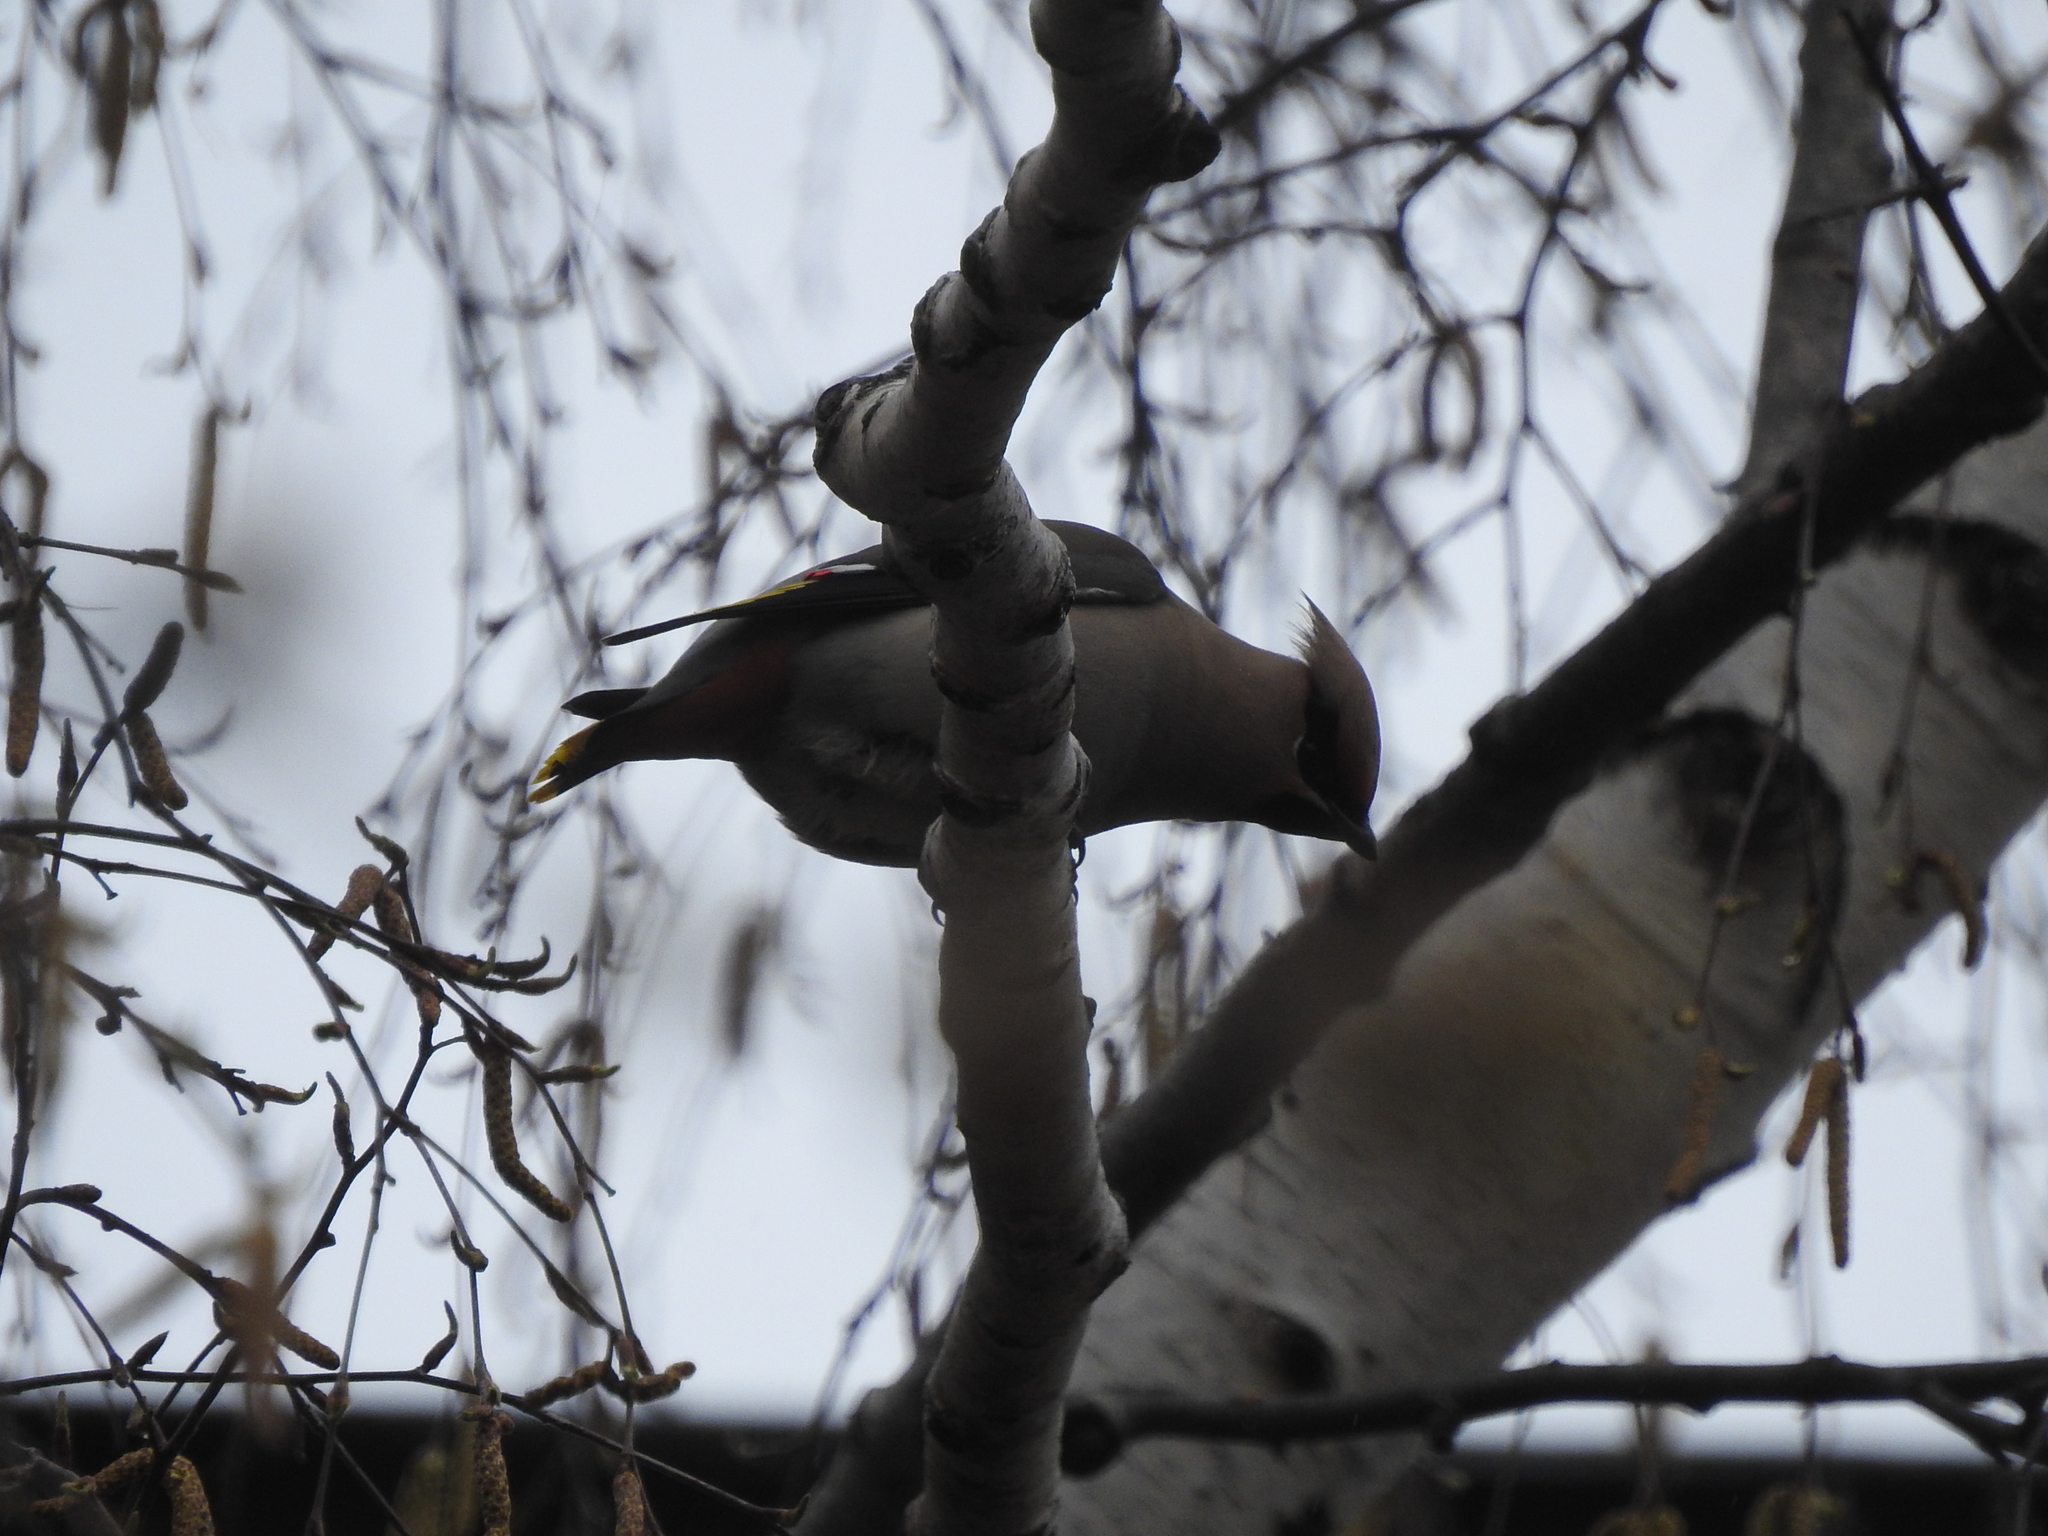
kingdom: Animalia
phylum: Chordata
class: Aves
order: Passeriformes
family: Bombycillidae
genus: Bombycilla
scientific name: Bombycilla garrulus
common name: Bohemian waxwing
